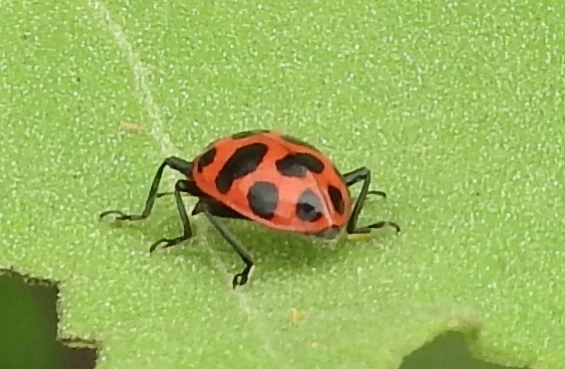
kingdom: Animalia
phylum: Arthropoda
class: Insecta
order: Coleoptera
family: Coccinellidae
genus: Coleomegilla
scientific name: Coleomegilla maculata
